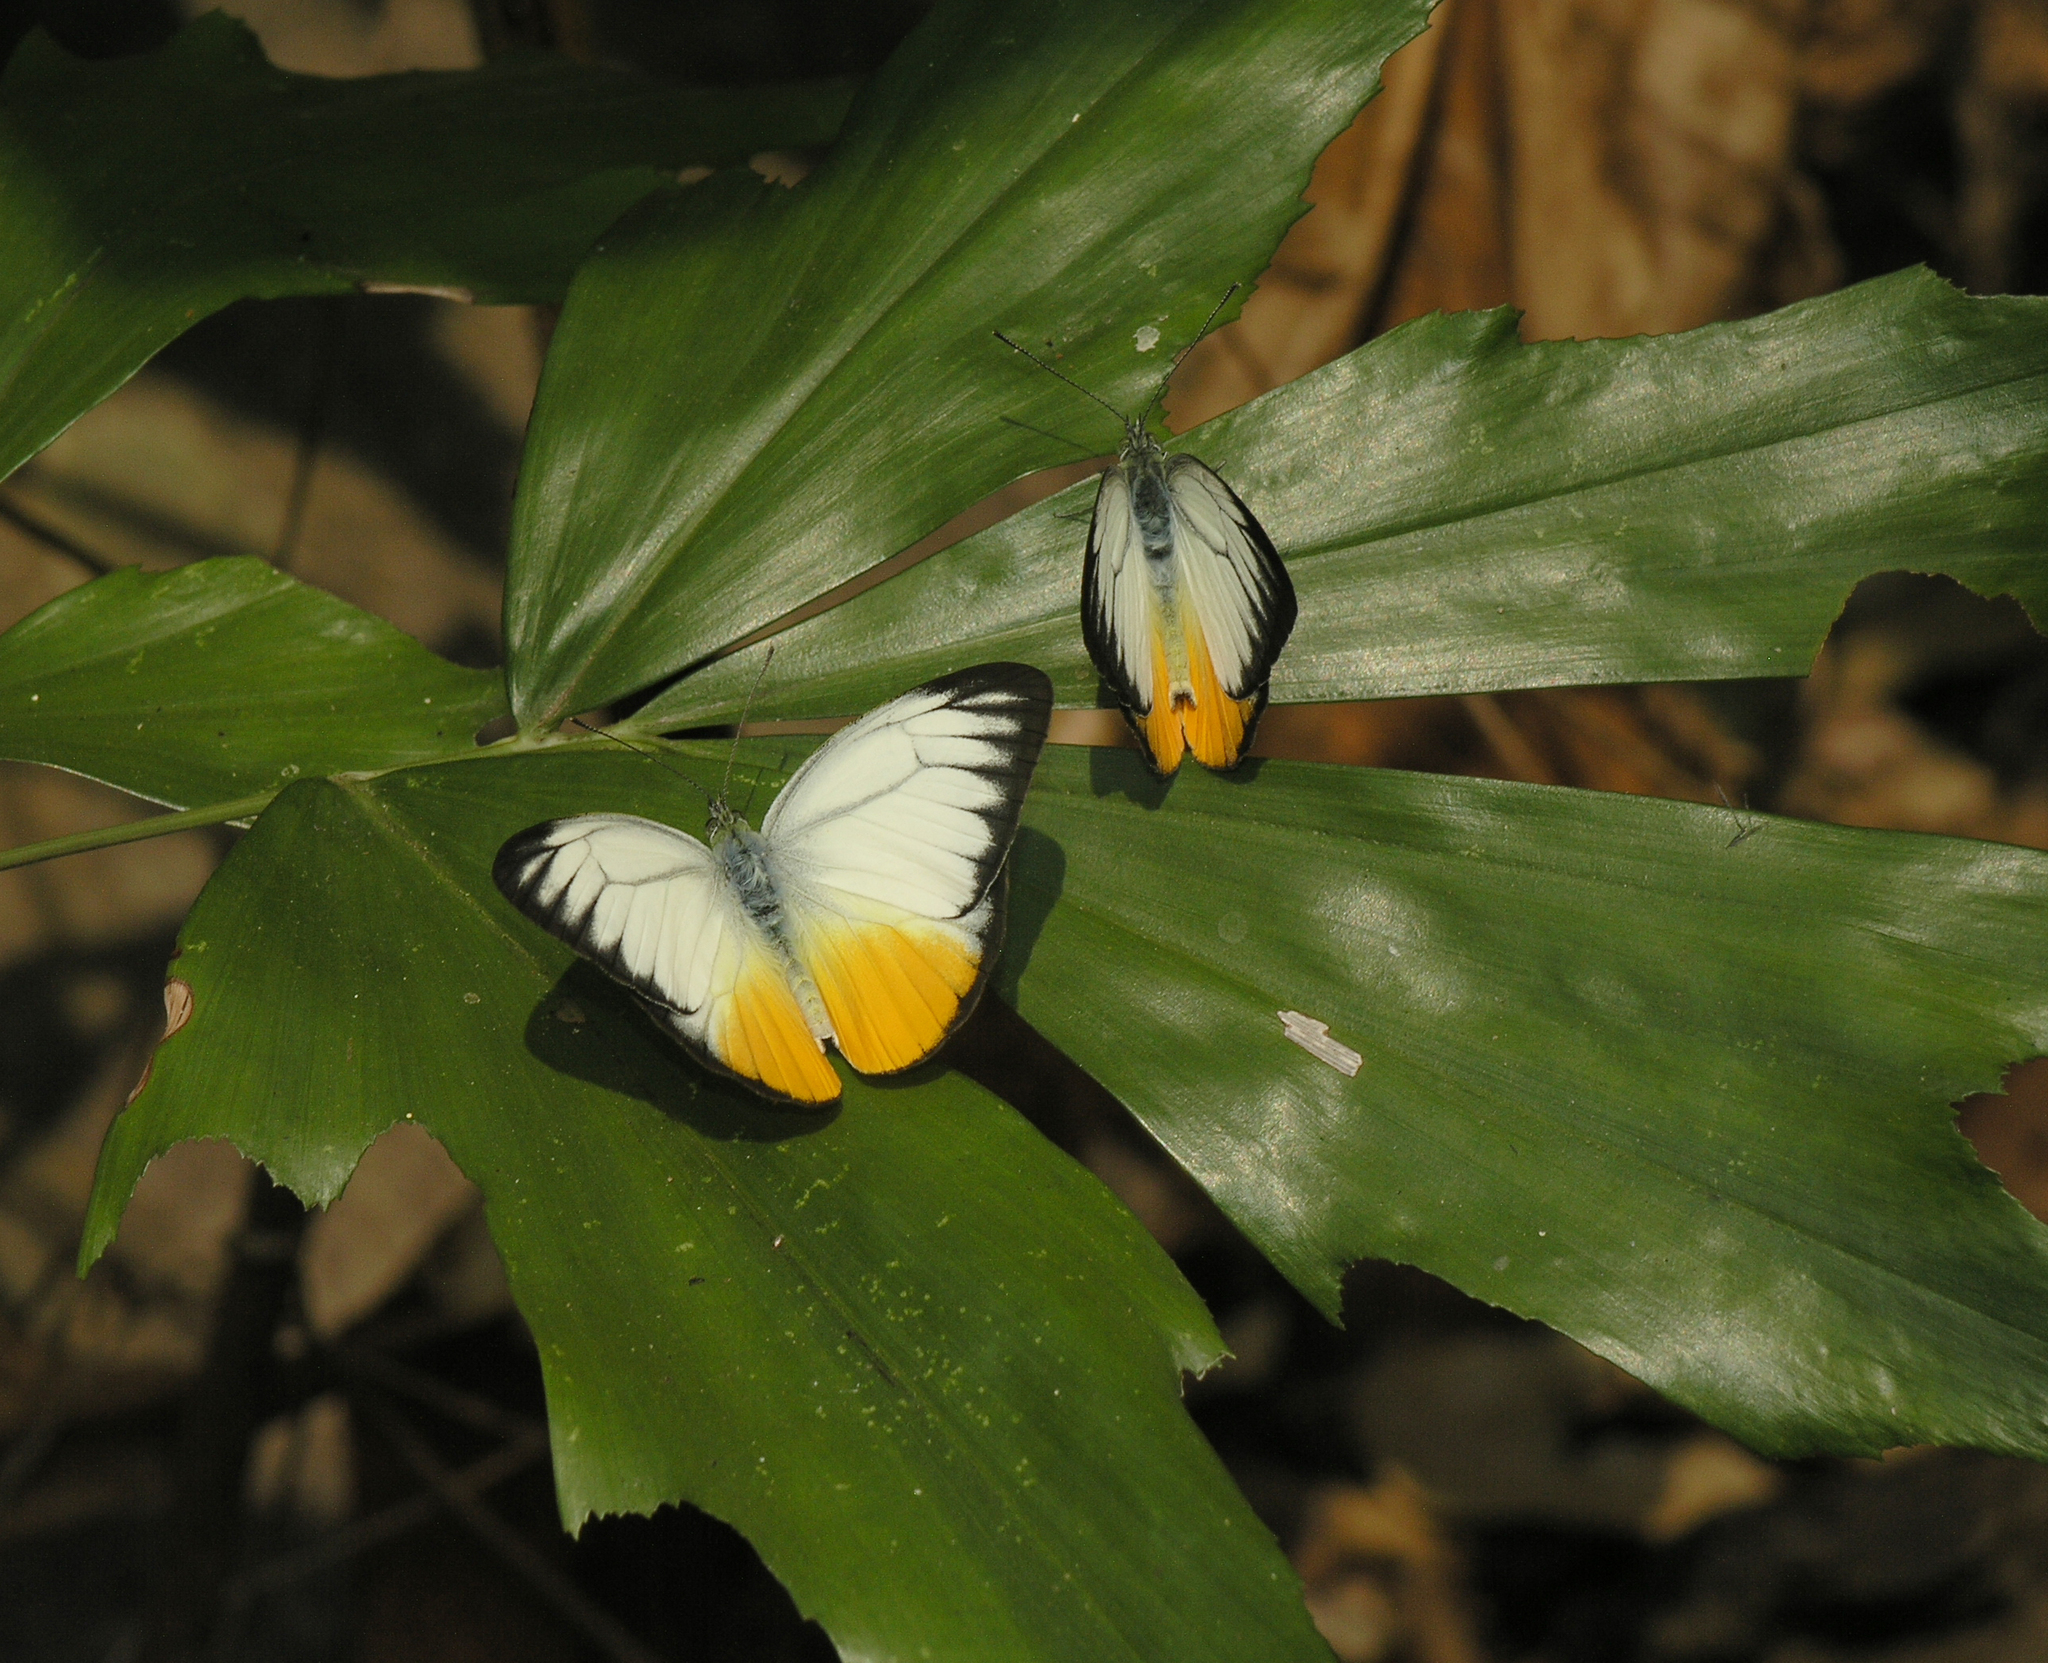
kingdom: Animalia
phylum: Arthropoda
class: Insecta
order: Lepidoptera
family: Pieridae
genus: Cepora
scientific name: Cepora iudith
